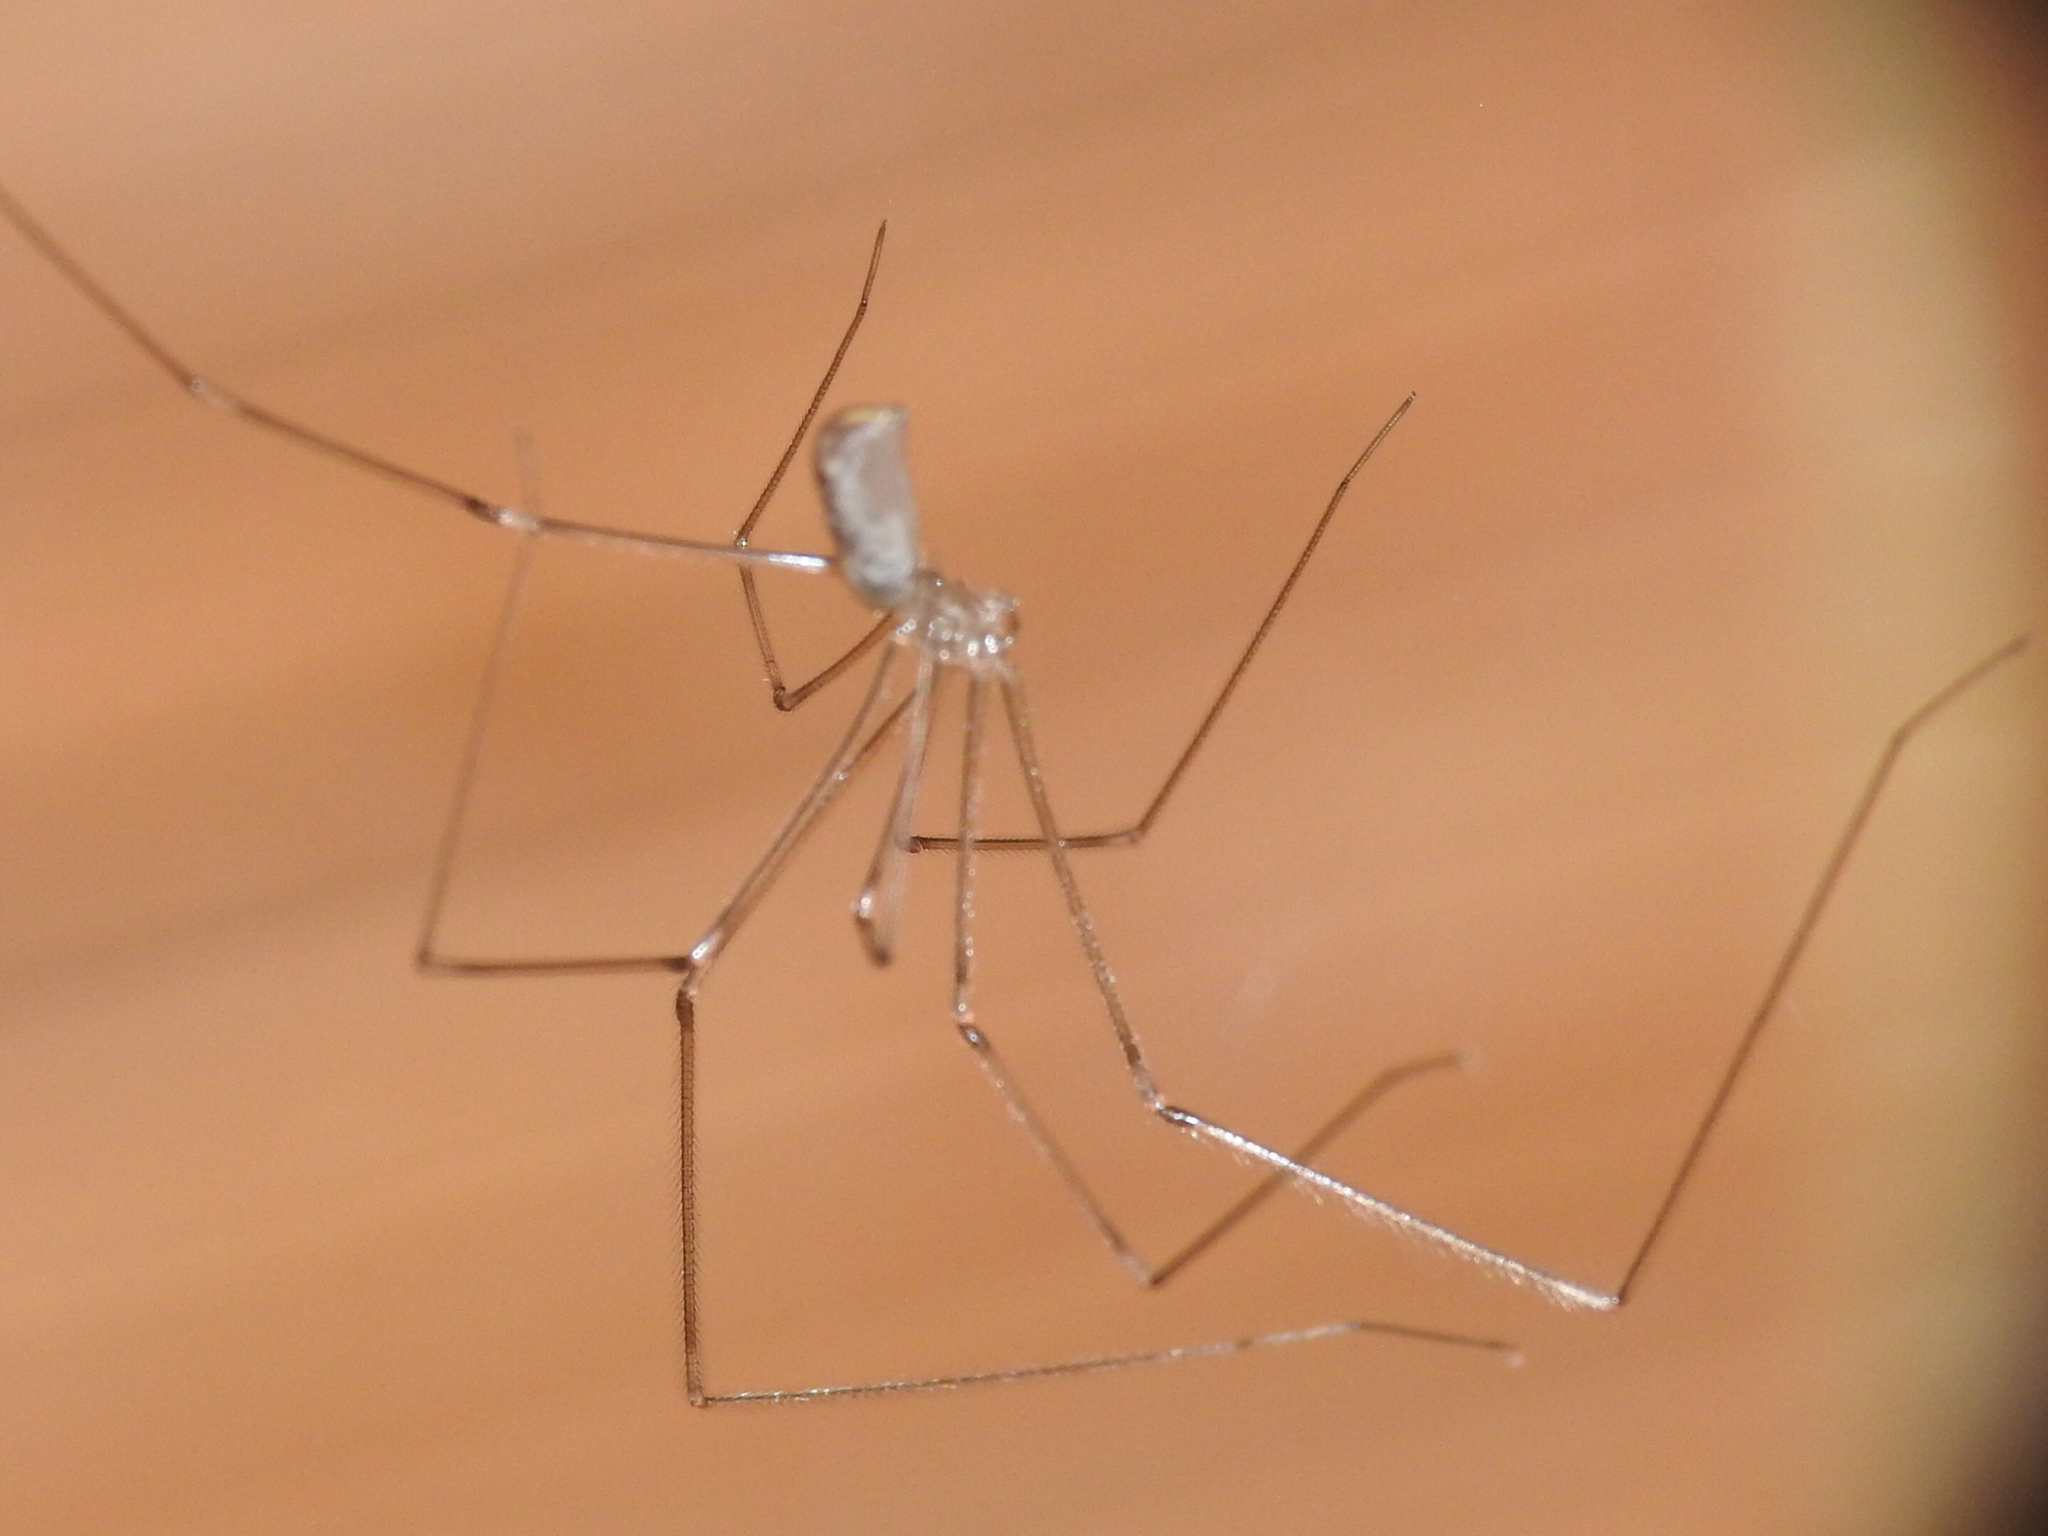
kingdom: Animalia
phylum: Arthropoda
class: Arachnida
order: Araneae
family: Pholcidae
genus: Pholcus
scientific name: Pholcus phalangioides
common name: Longbodied cellar spider
